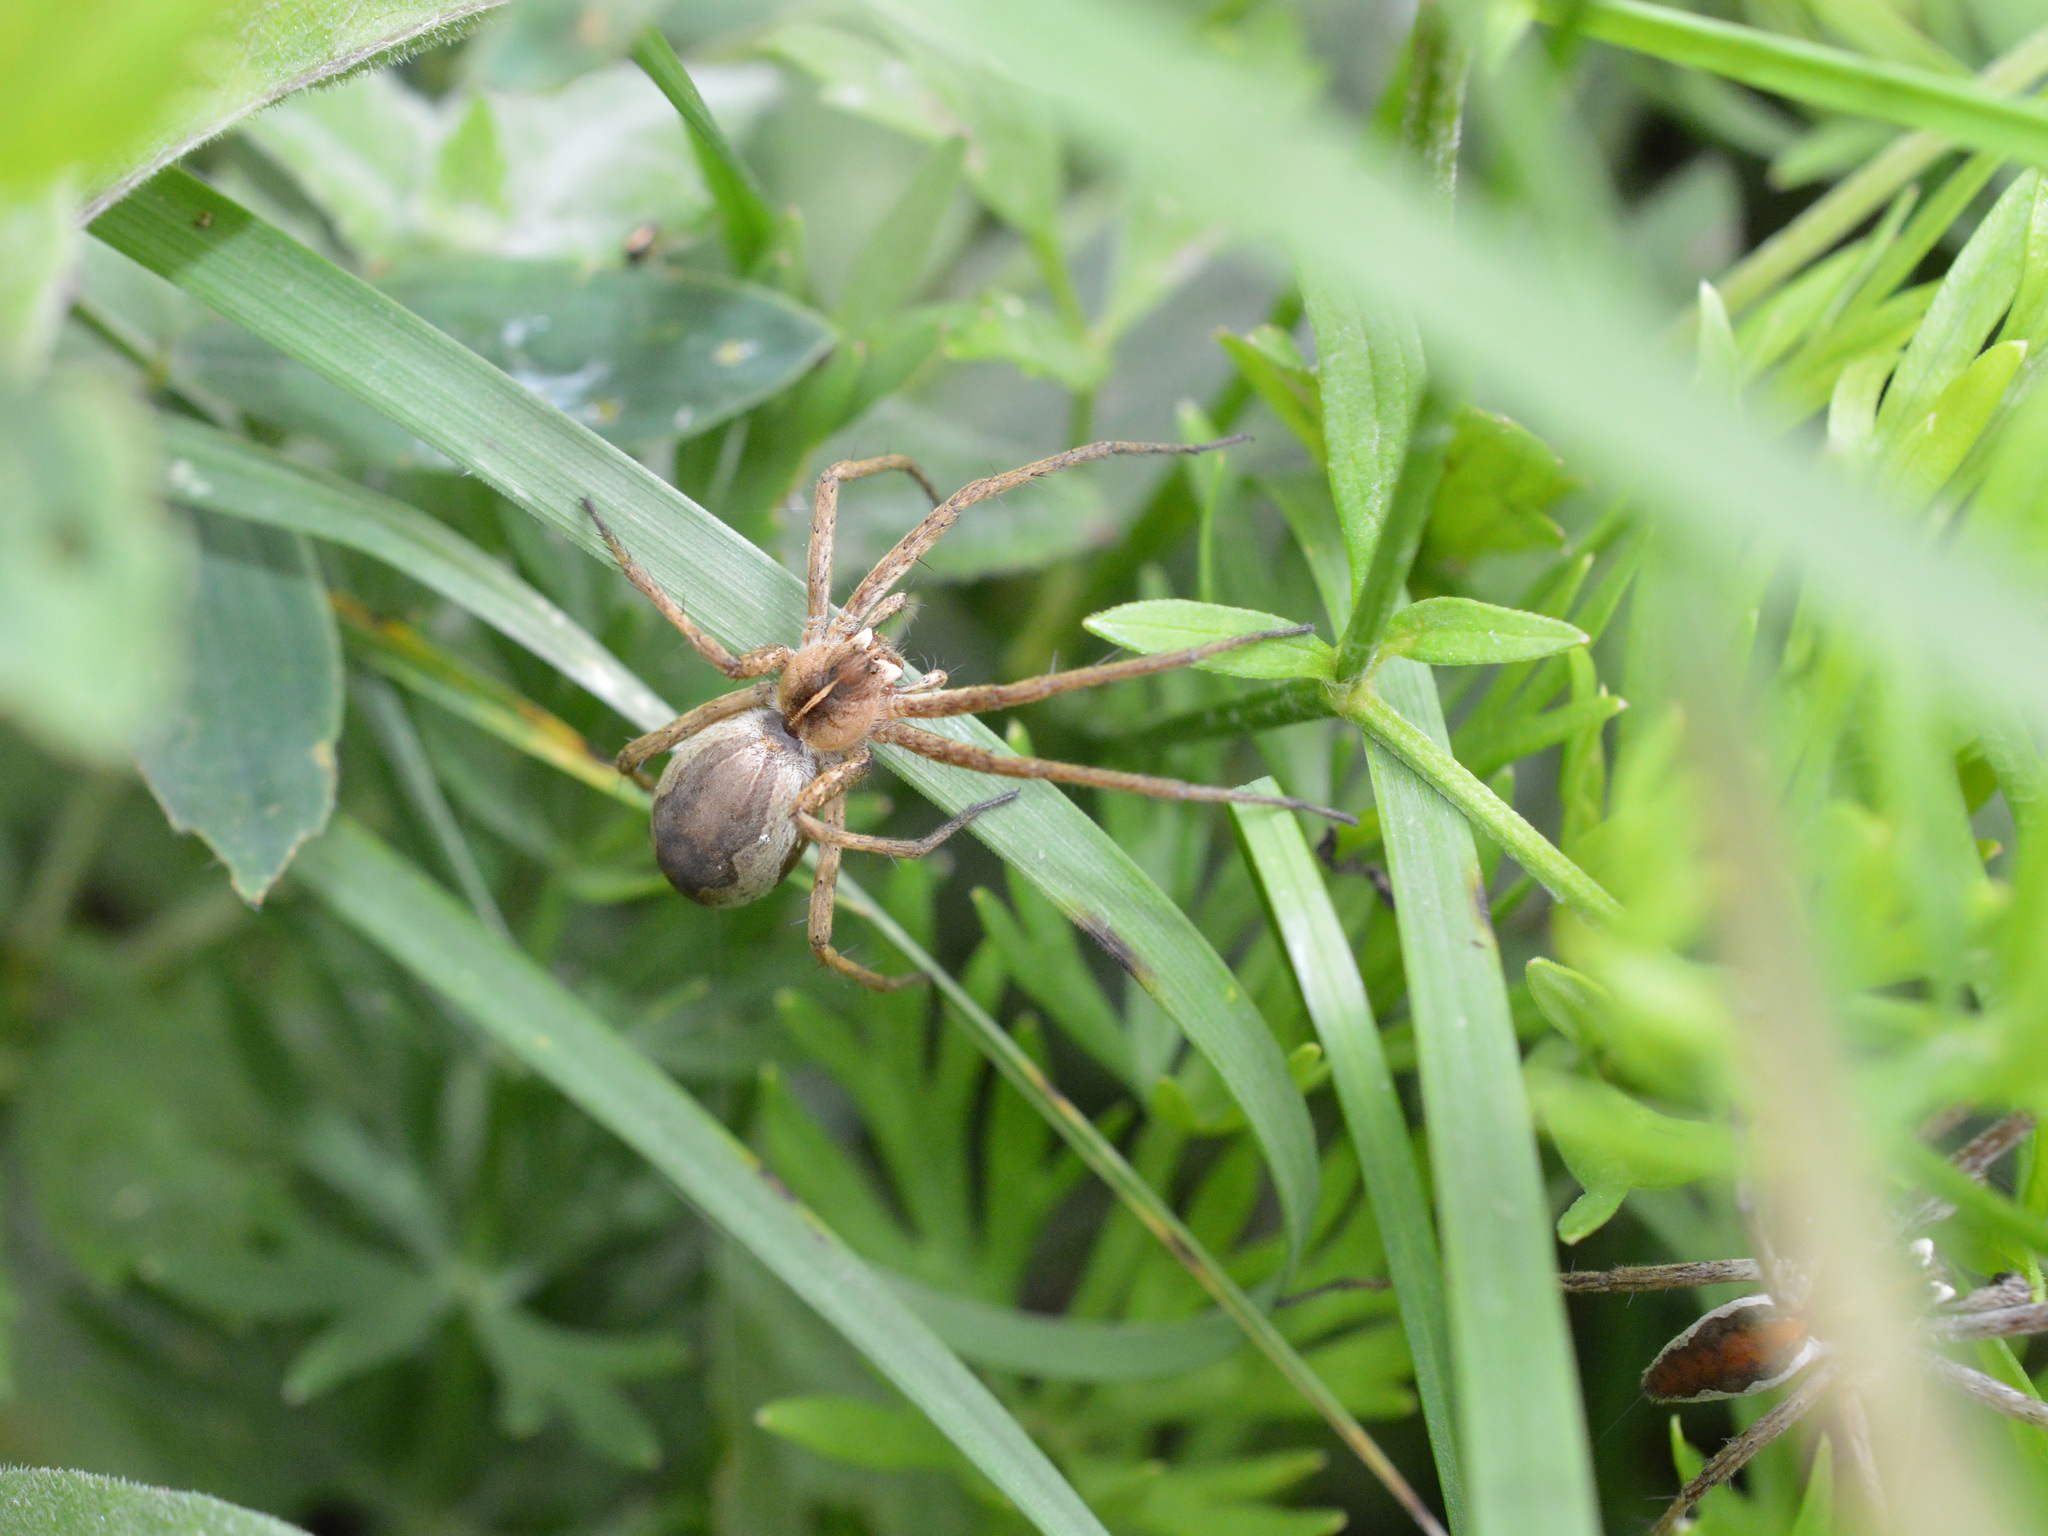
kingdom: Animalia
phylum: Arthropoda
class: Arachnida
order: Araneae
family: Pisauridae
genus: Pisaura
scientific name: Pisaura
